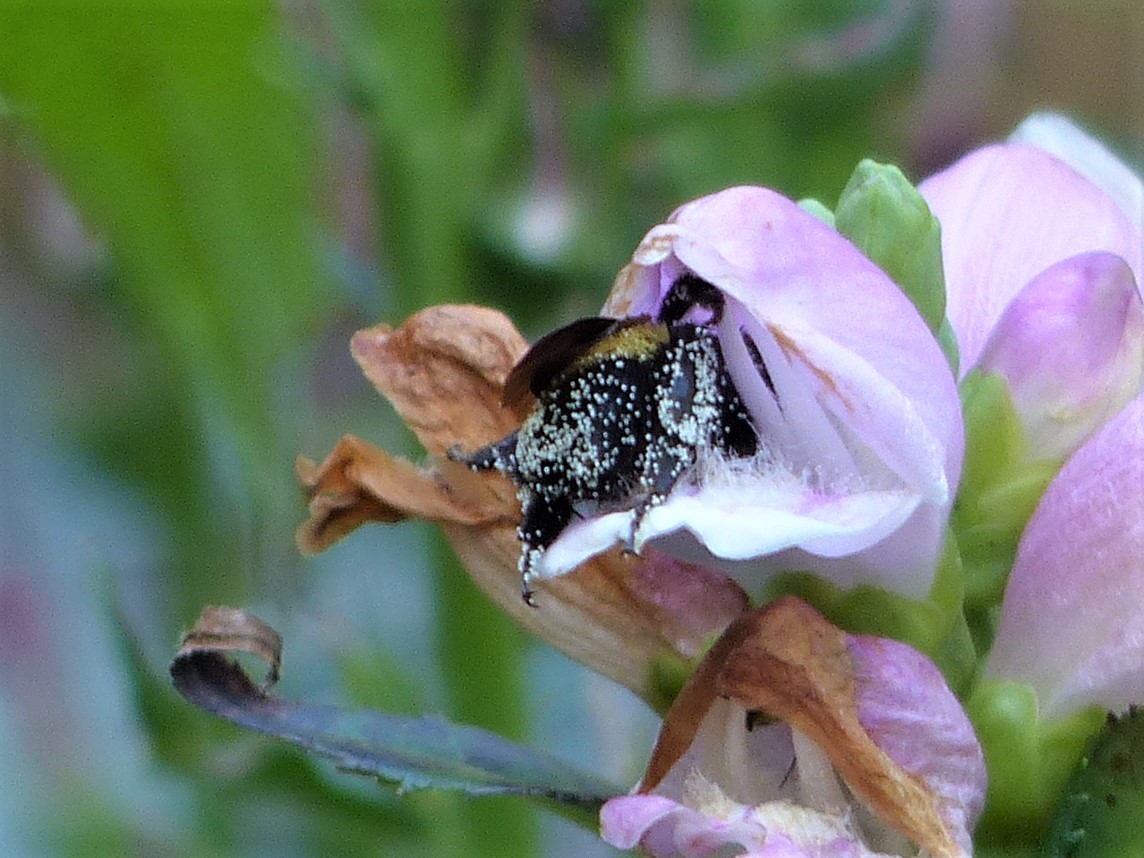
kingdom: Animalia
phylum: Arthropoda
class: Insecta
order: Hymenoptera
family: Apidae
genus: Bombus
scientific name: Bombus pensylvanicus
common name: Bumble bee
